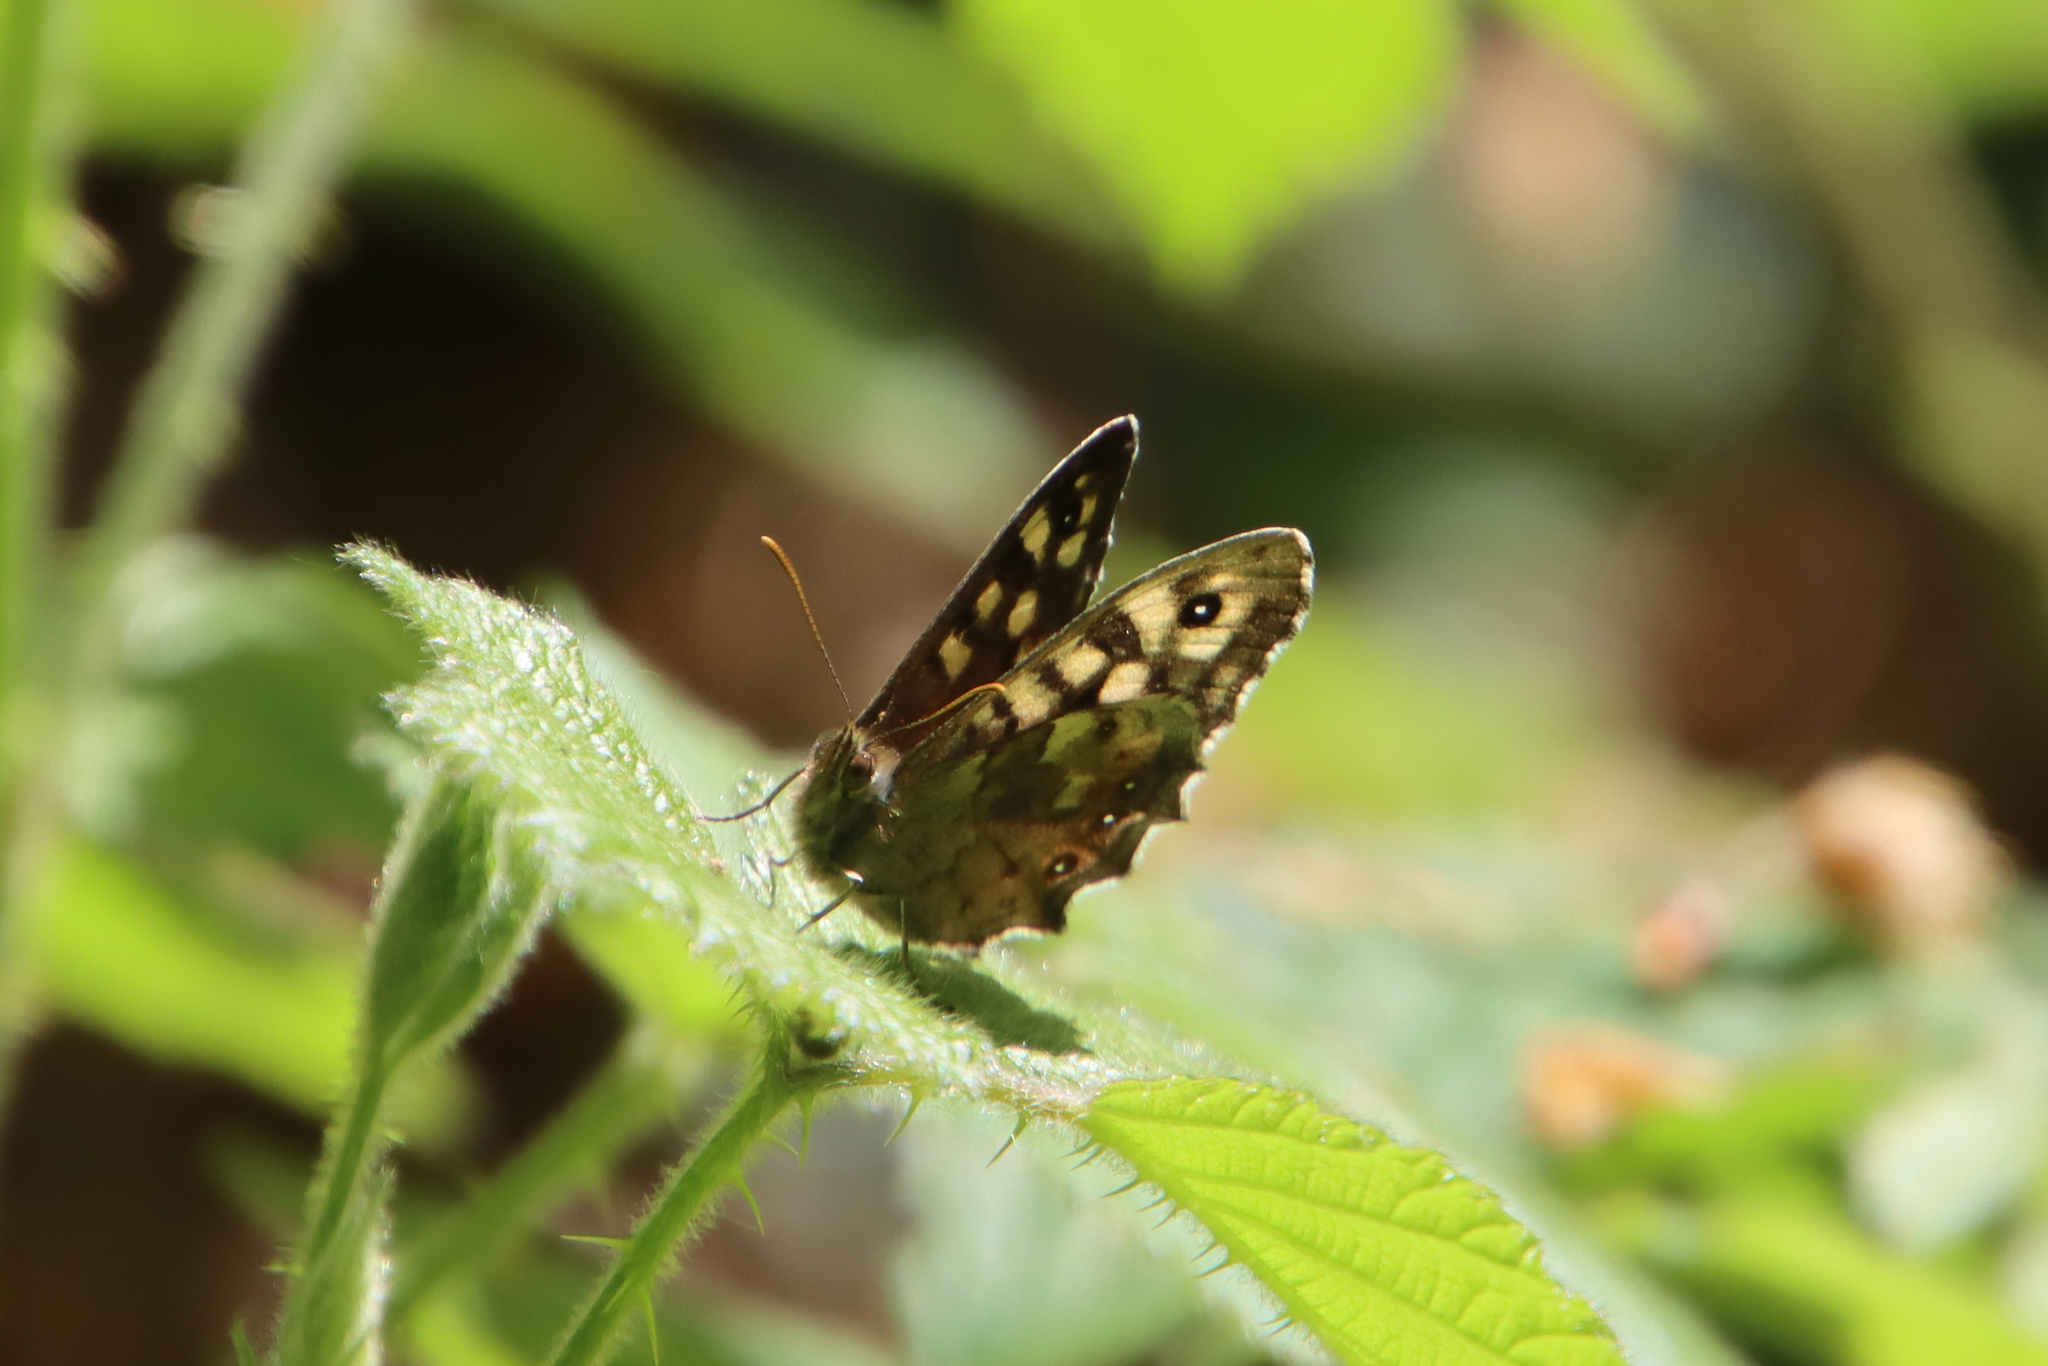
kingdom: Animalia
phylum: Arthropoda
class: Insecta
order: Lepidoptera
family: Nymphalidae
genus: Pararge
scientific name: Pararge aegeria
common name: Speckled wood
